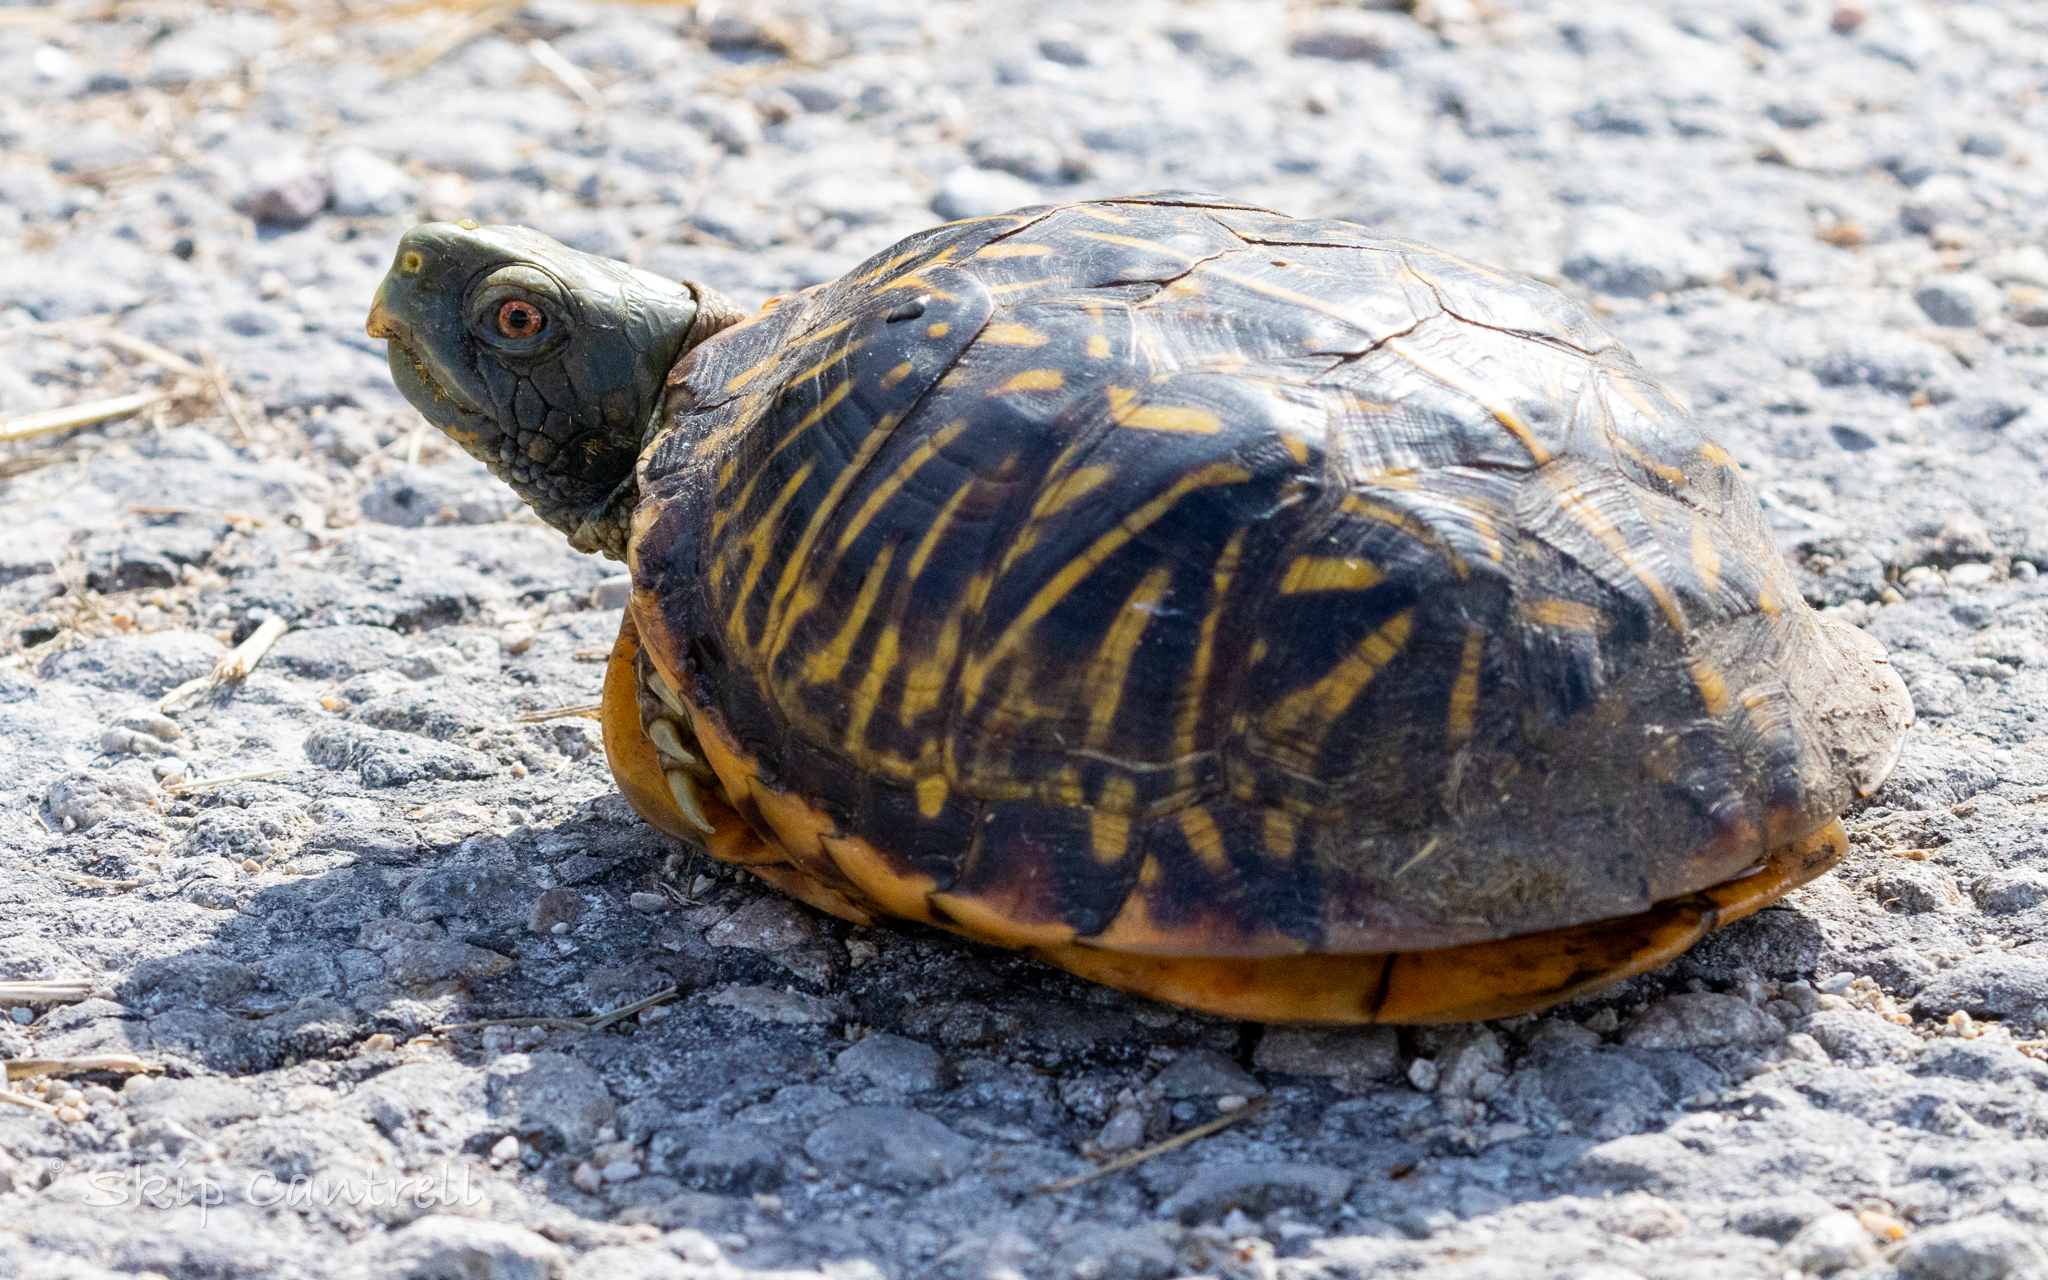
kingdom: Animalia
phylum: Chordata
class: Testudines
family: Emydidae
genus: Terrapene
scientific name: Terrapene ornata
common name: Western box turtle
